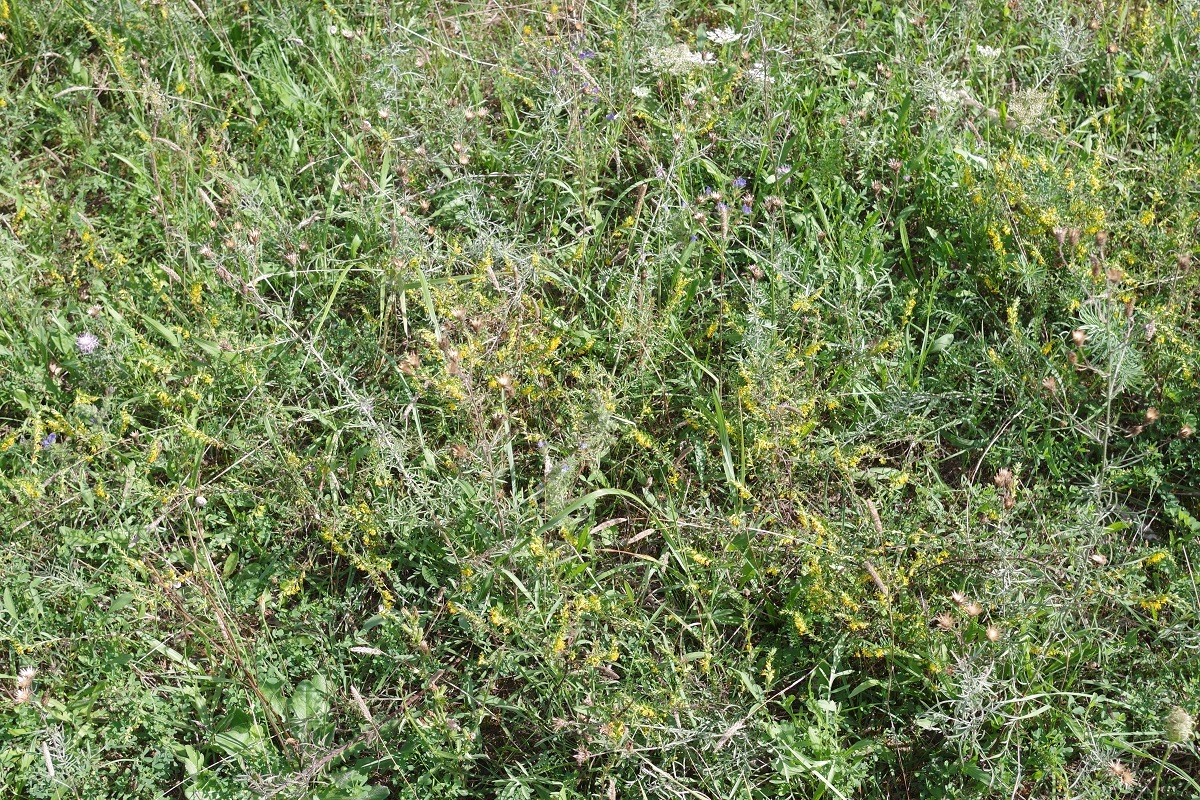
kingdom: Plantae
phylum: Tracheophyta
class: Magnoliopsida
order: Lamiales
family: Orobanchaceae
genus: Odontites
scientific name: Odontites luteus
